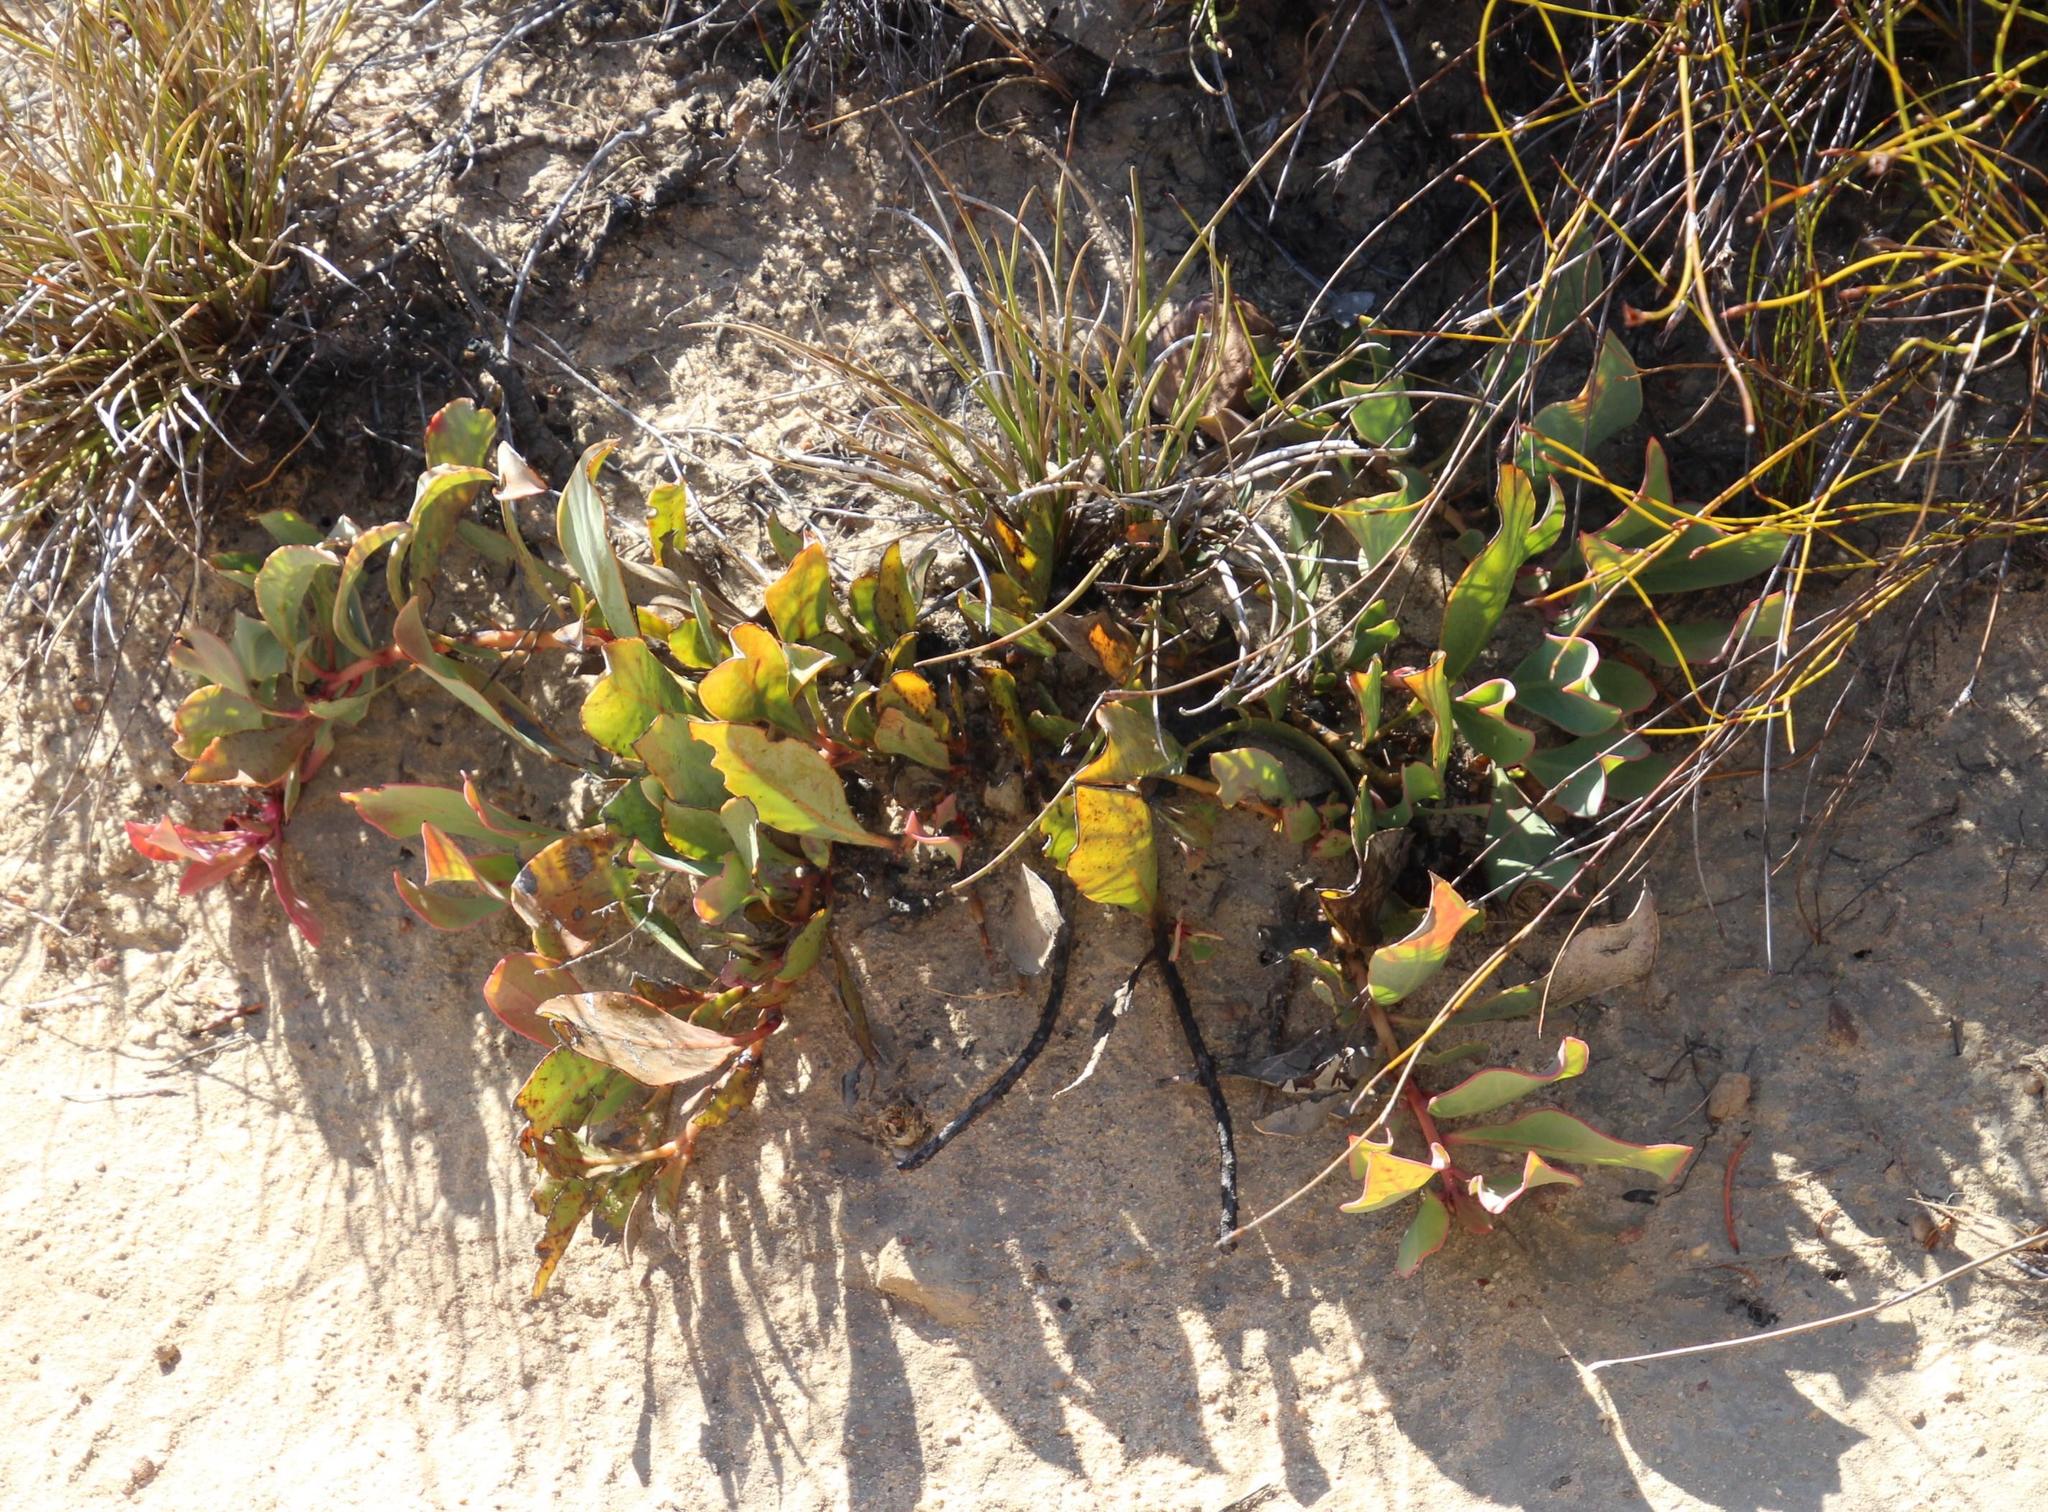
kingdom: Plantae
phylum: Tracheophyta
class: Magnoliopsida
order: Proteales
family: Proteaceae
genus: Protea
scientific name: Protea acaulos
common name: Common ground sugarbush
